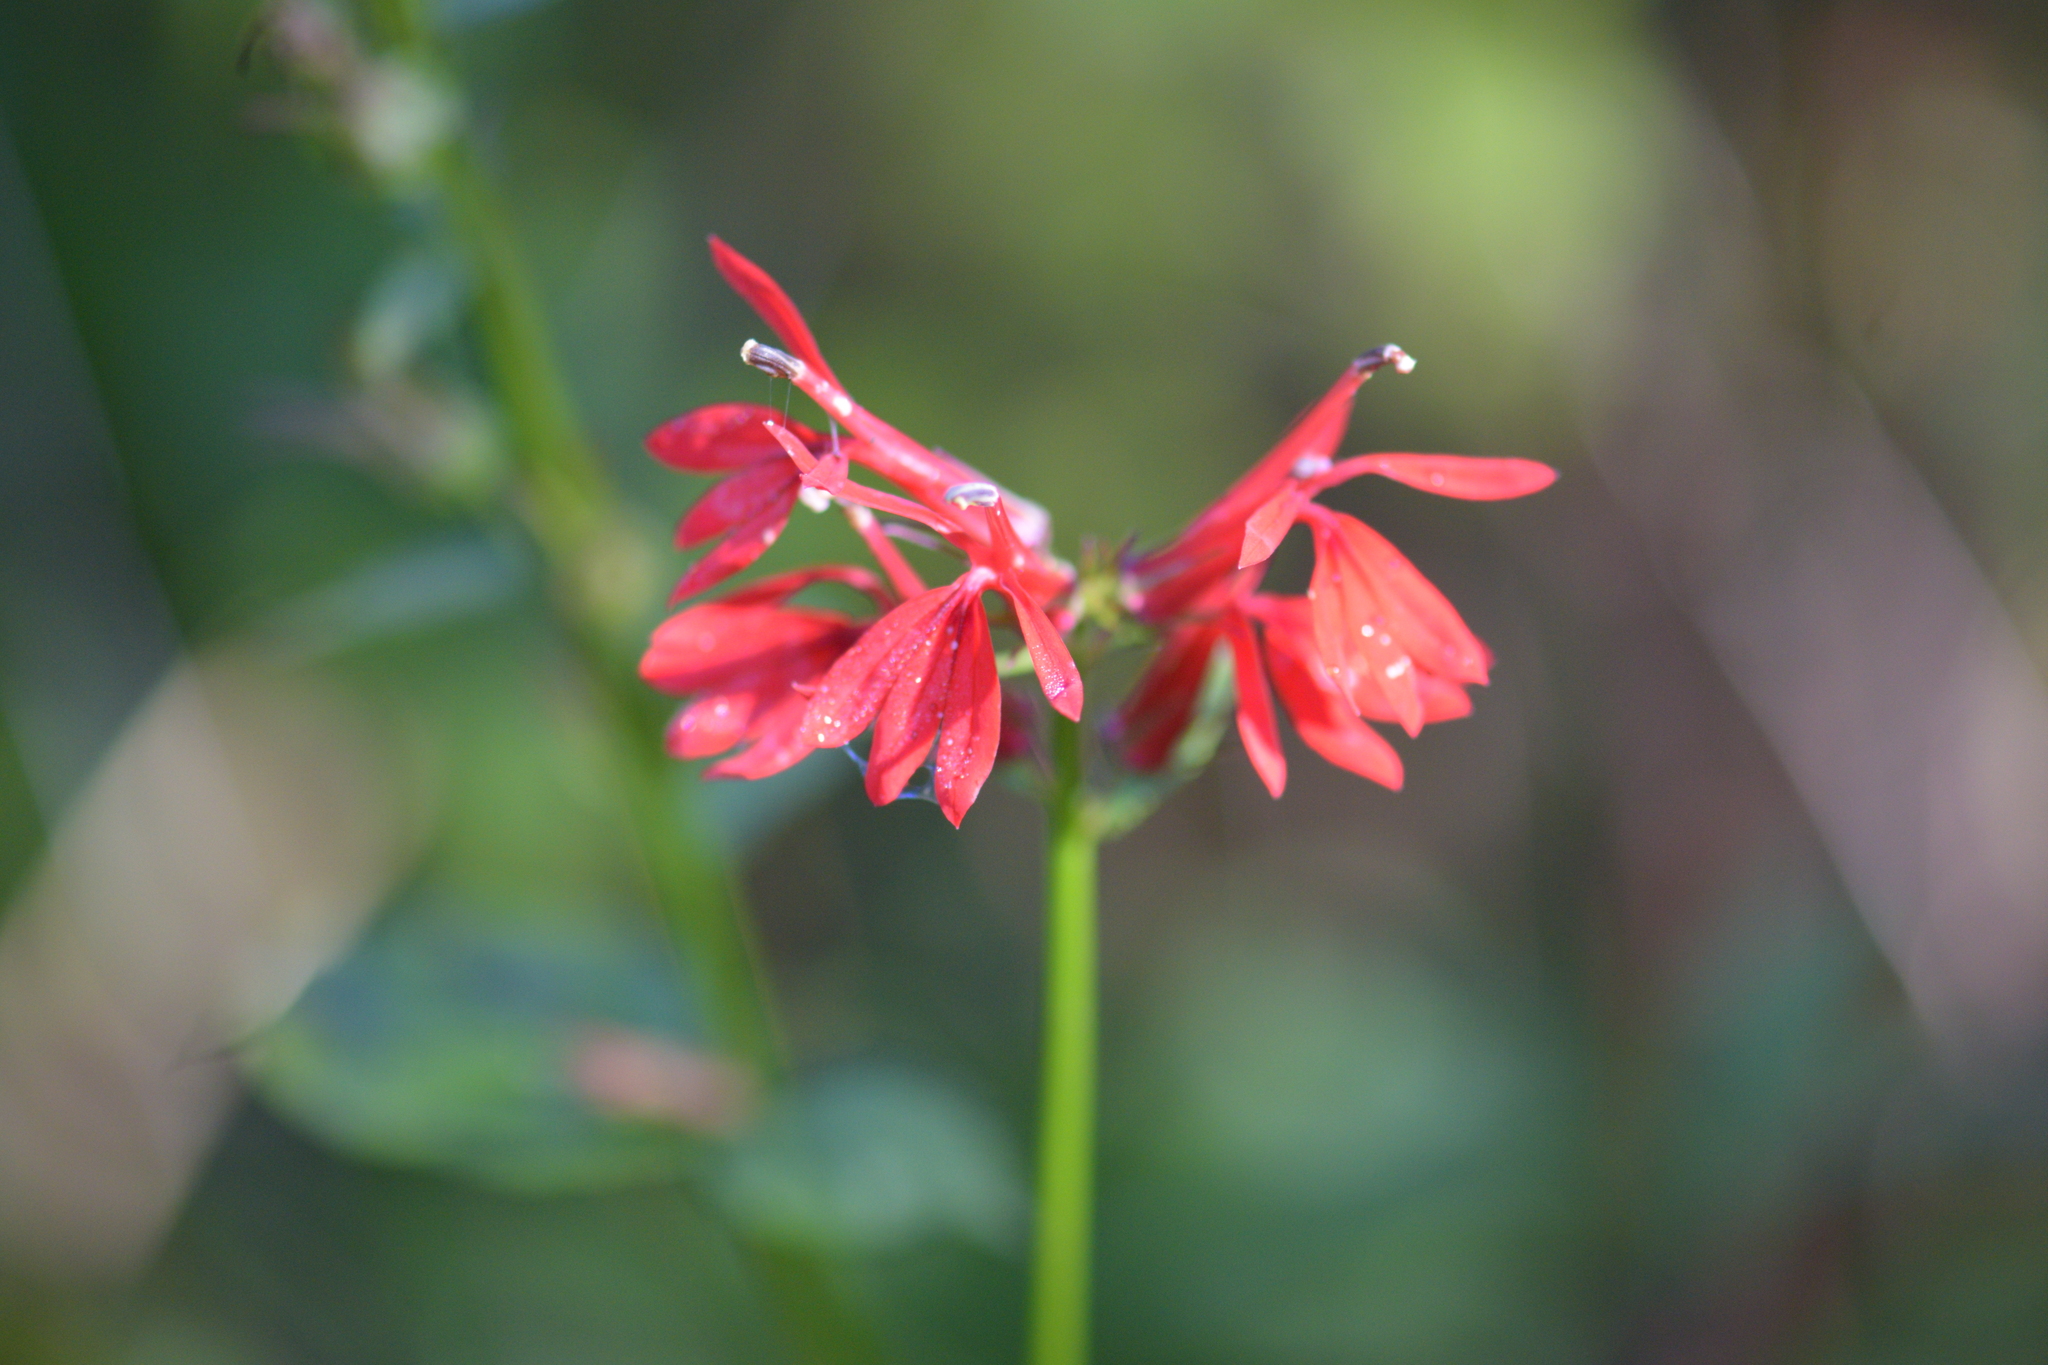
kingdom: Plantae
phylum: Tracheophyta
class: Magnoliopsida
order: Asterales
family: Campanulaceae
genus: Lobelia
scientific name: Lobelia cardinalis
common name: Cardinal flower
